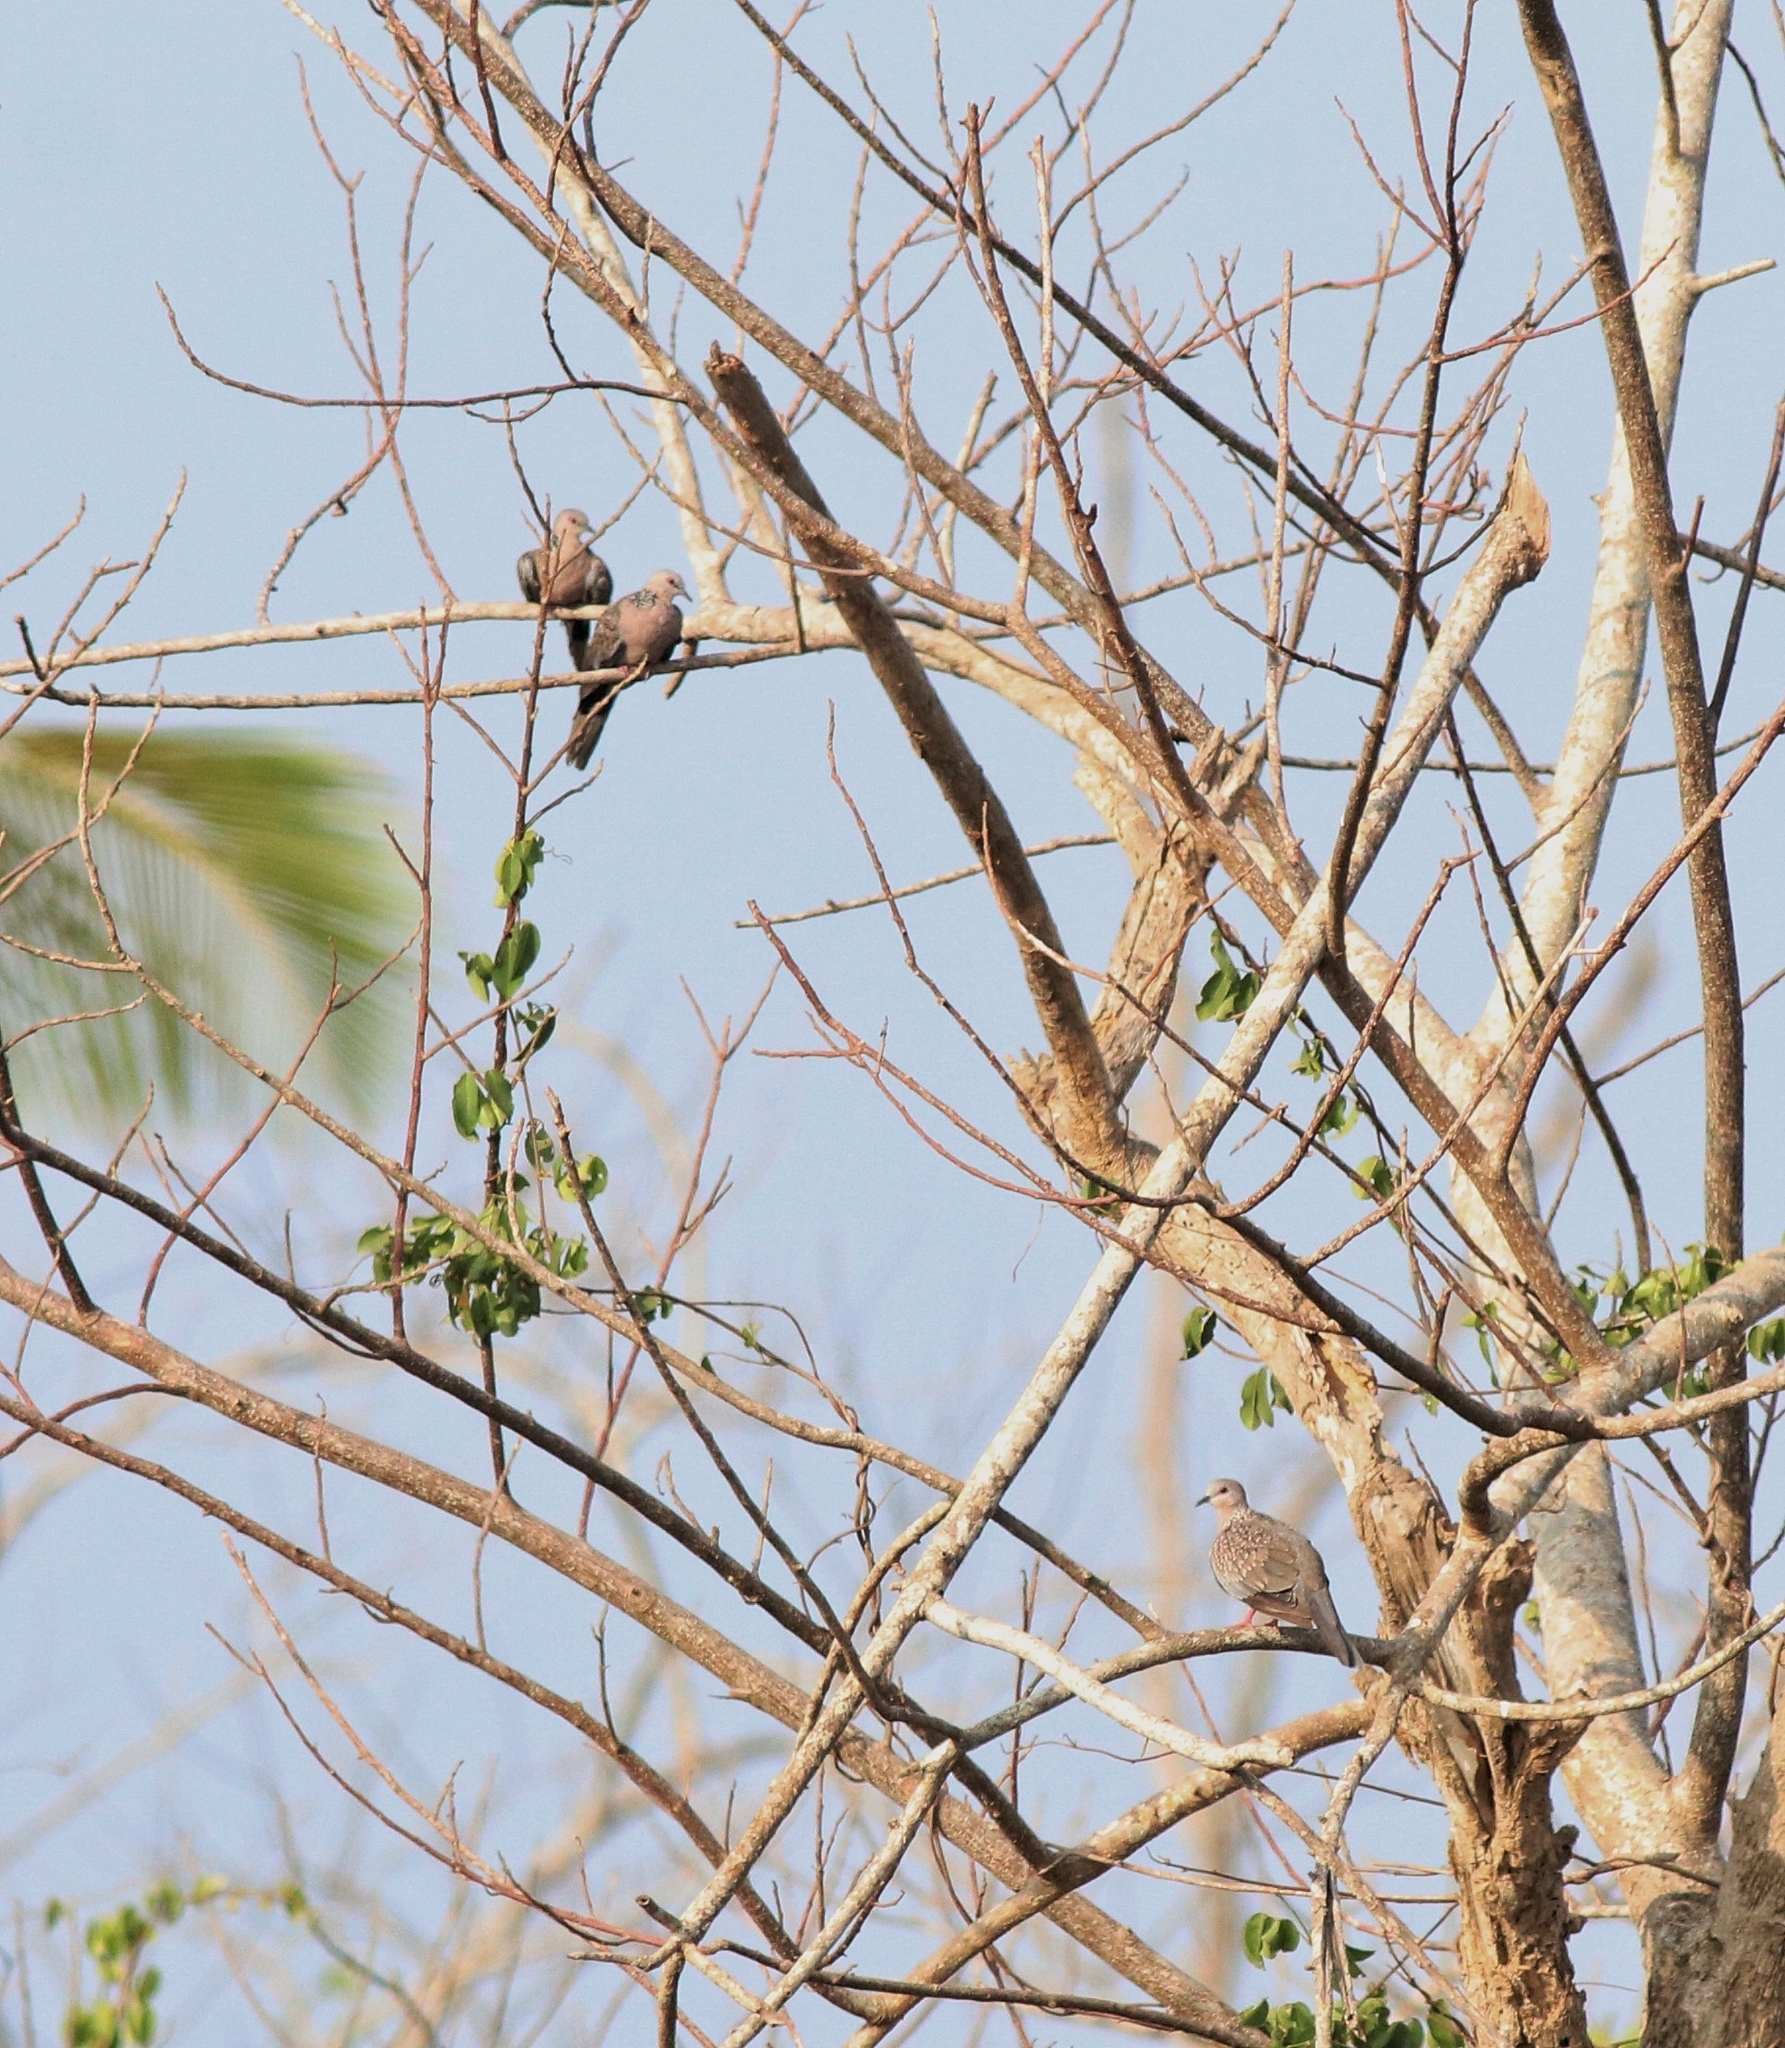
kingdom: Animalia
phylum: Chordata
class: Aves
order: Columbiformes
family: Columbidae
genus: Spilopelia
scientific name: Spilopelia chinensis
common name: Spotted dove
